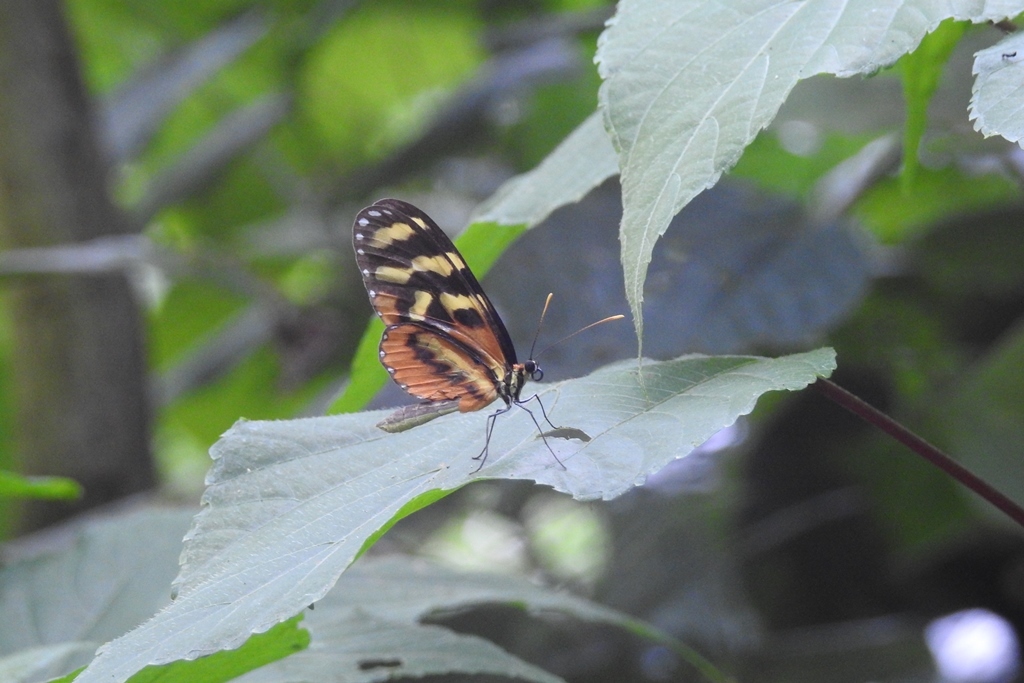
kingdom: Animalia
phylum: Arthropoda
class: Insecta
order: Lepidoptera
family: Nymphalidae
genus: Mechanitis
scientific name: Mechanitis polymnia
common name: Disturbed tigerwing
